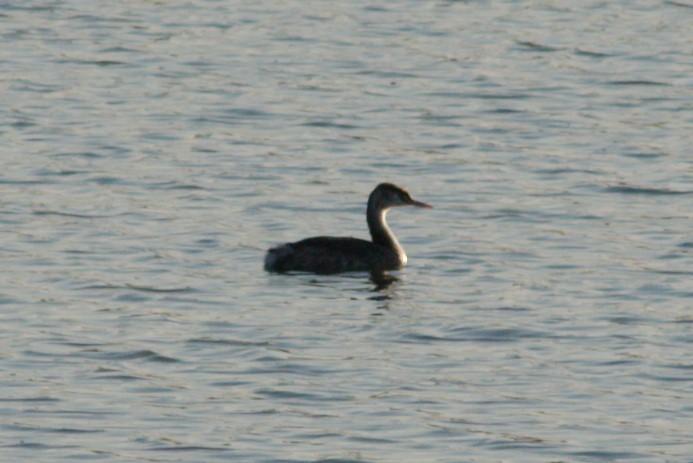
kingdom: Animalia
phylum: Chordata
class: Aves
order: Podicipediformes
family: Podicipedidae
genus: Podiceps
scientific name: Podiceps cristatus
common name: Great crested grebe
